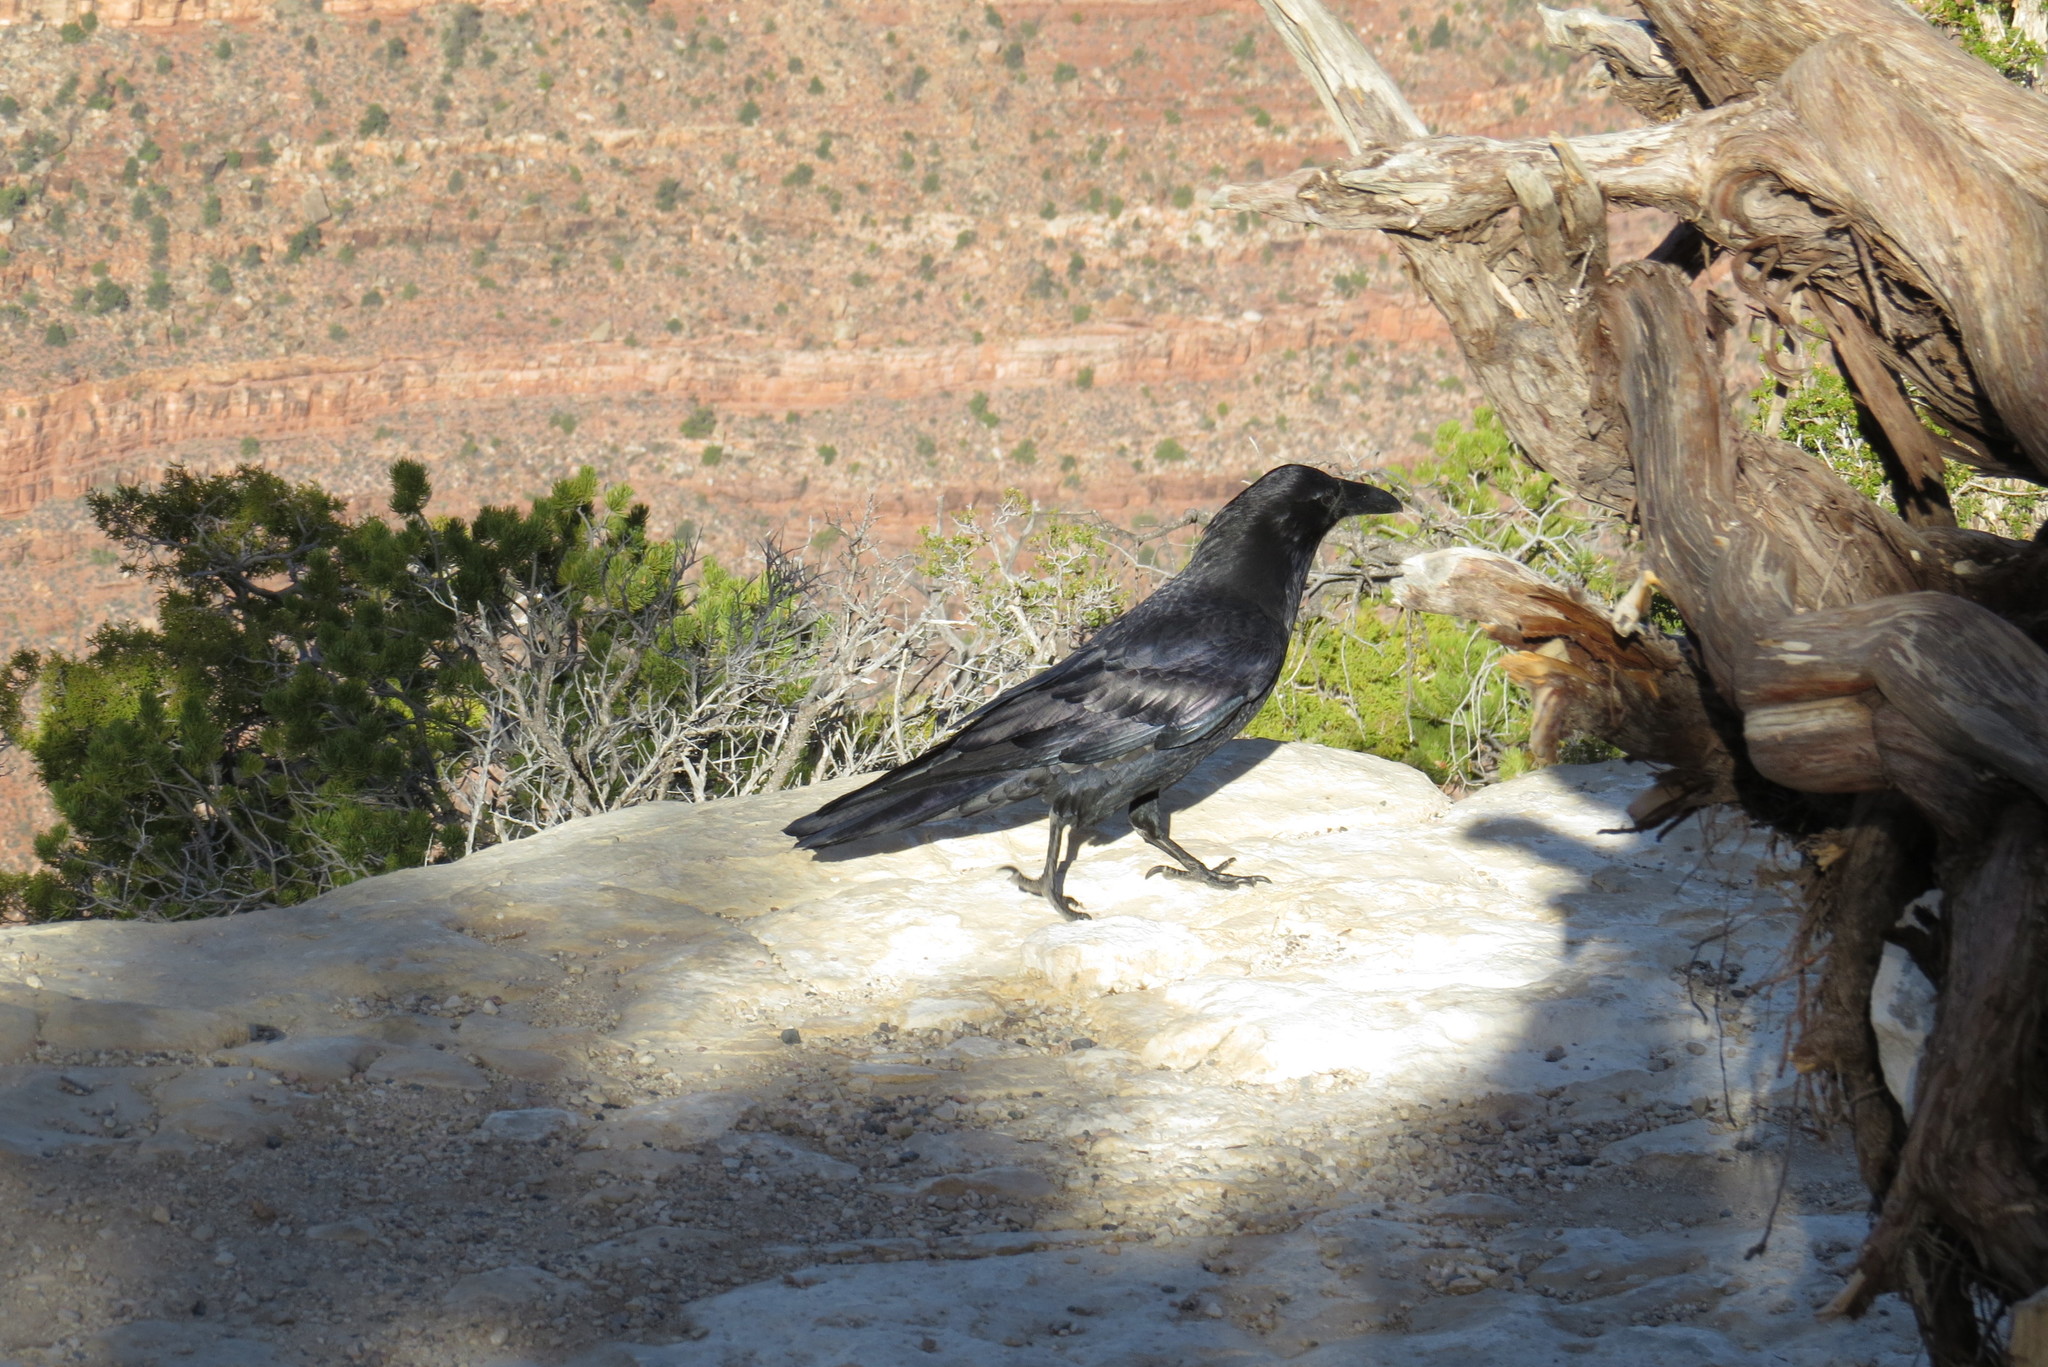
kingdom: Animalia
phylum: Chordata
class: Aves
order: Passeriformes
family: Corvidae
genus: Corvus
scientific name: Corvus corax
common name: Common raven
